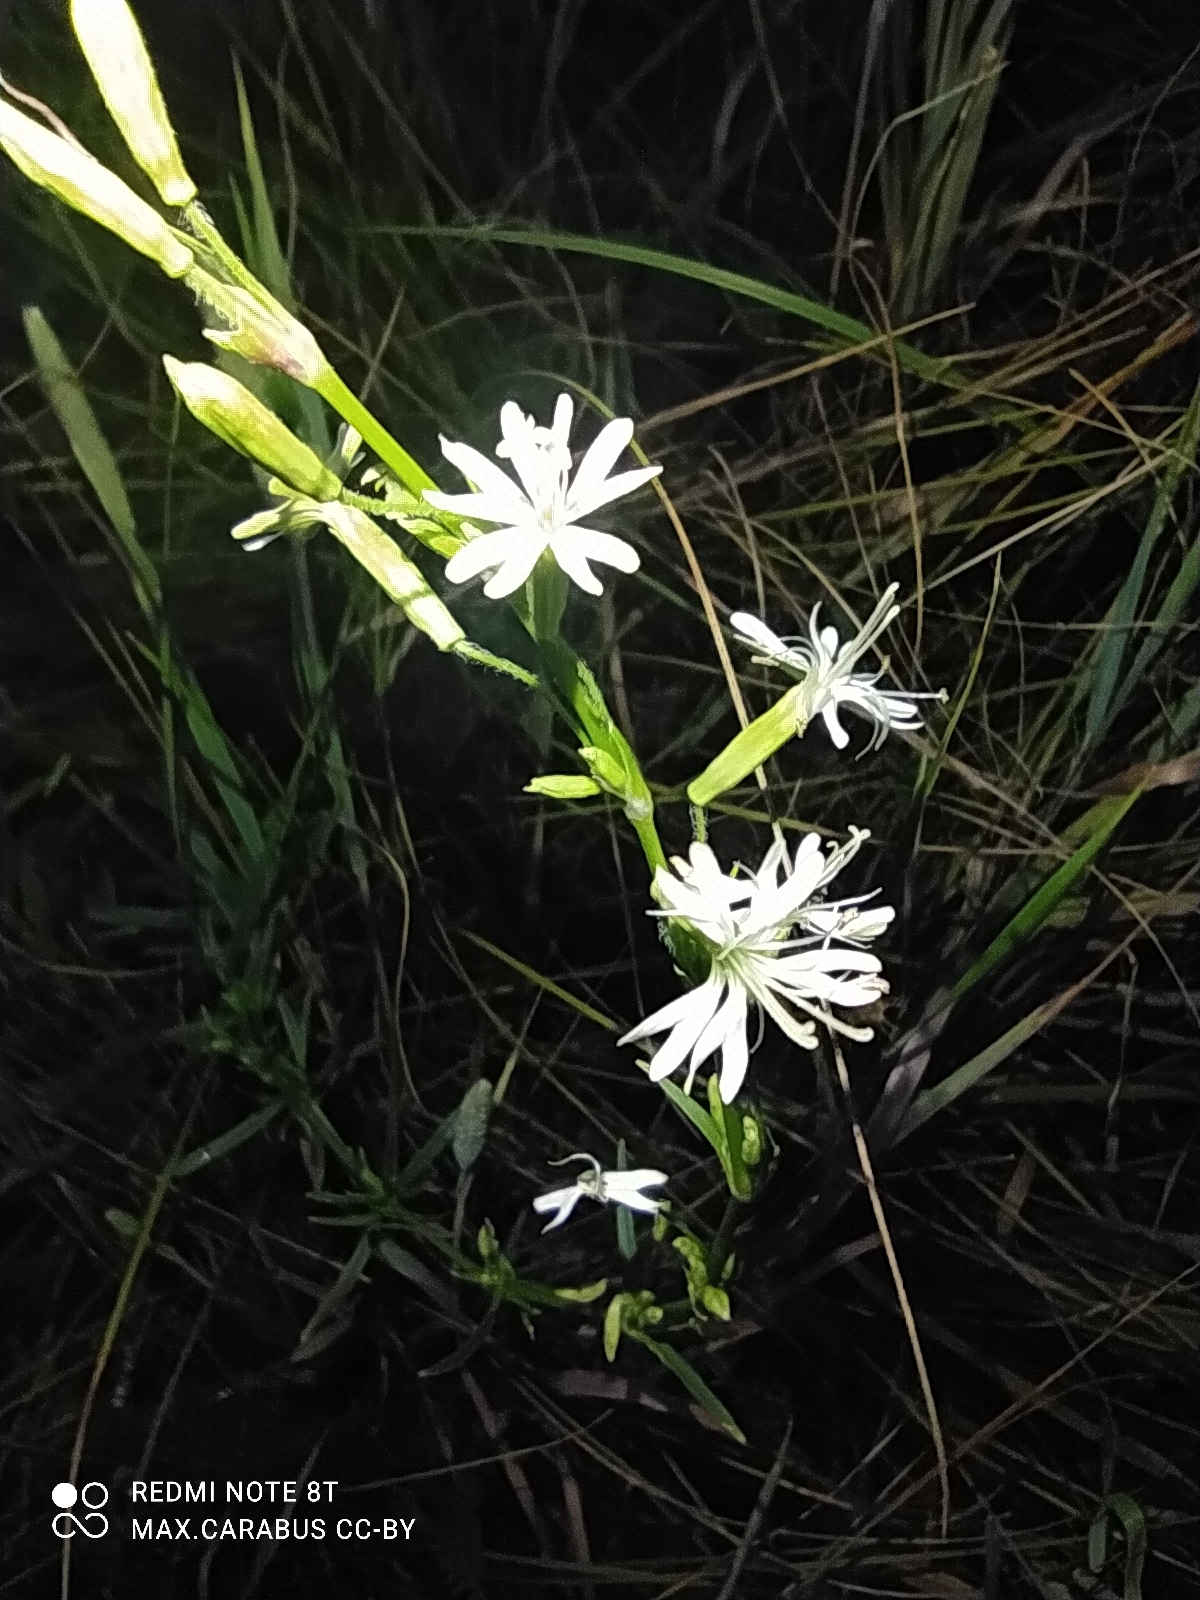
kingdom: Plantae
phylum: Tracheophyta
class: Magnoliopsida
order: Caryophyllales
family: Caryophyllaceae
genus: Silene
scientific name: Silene tatarica
